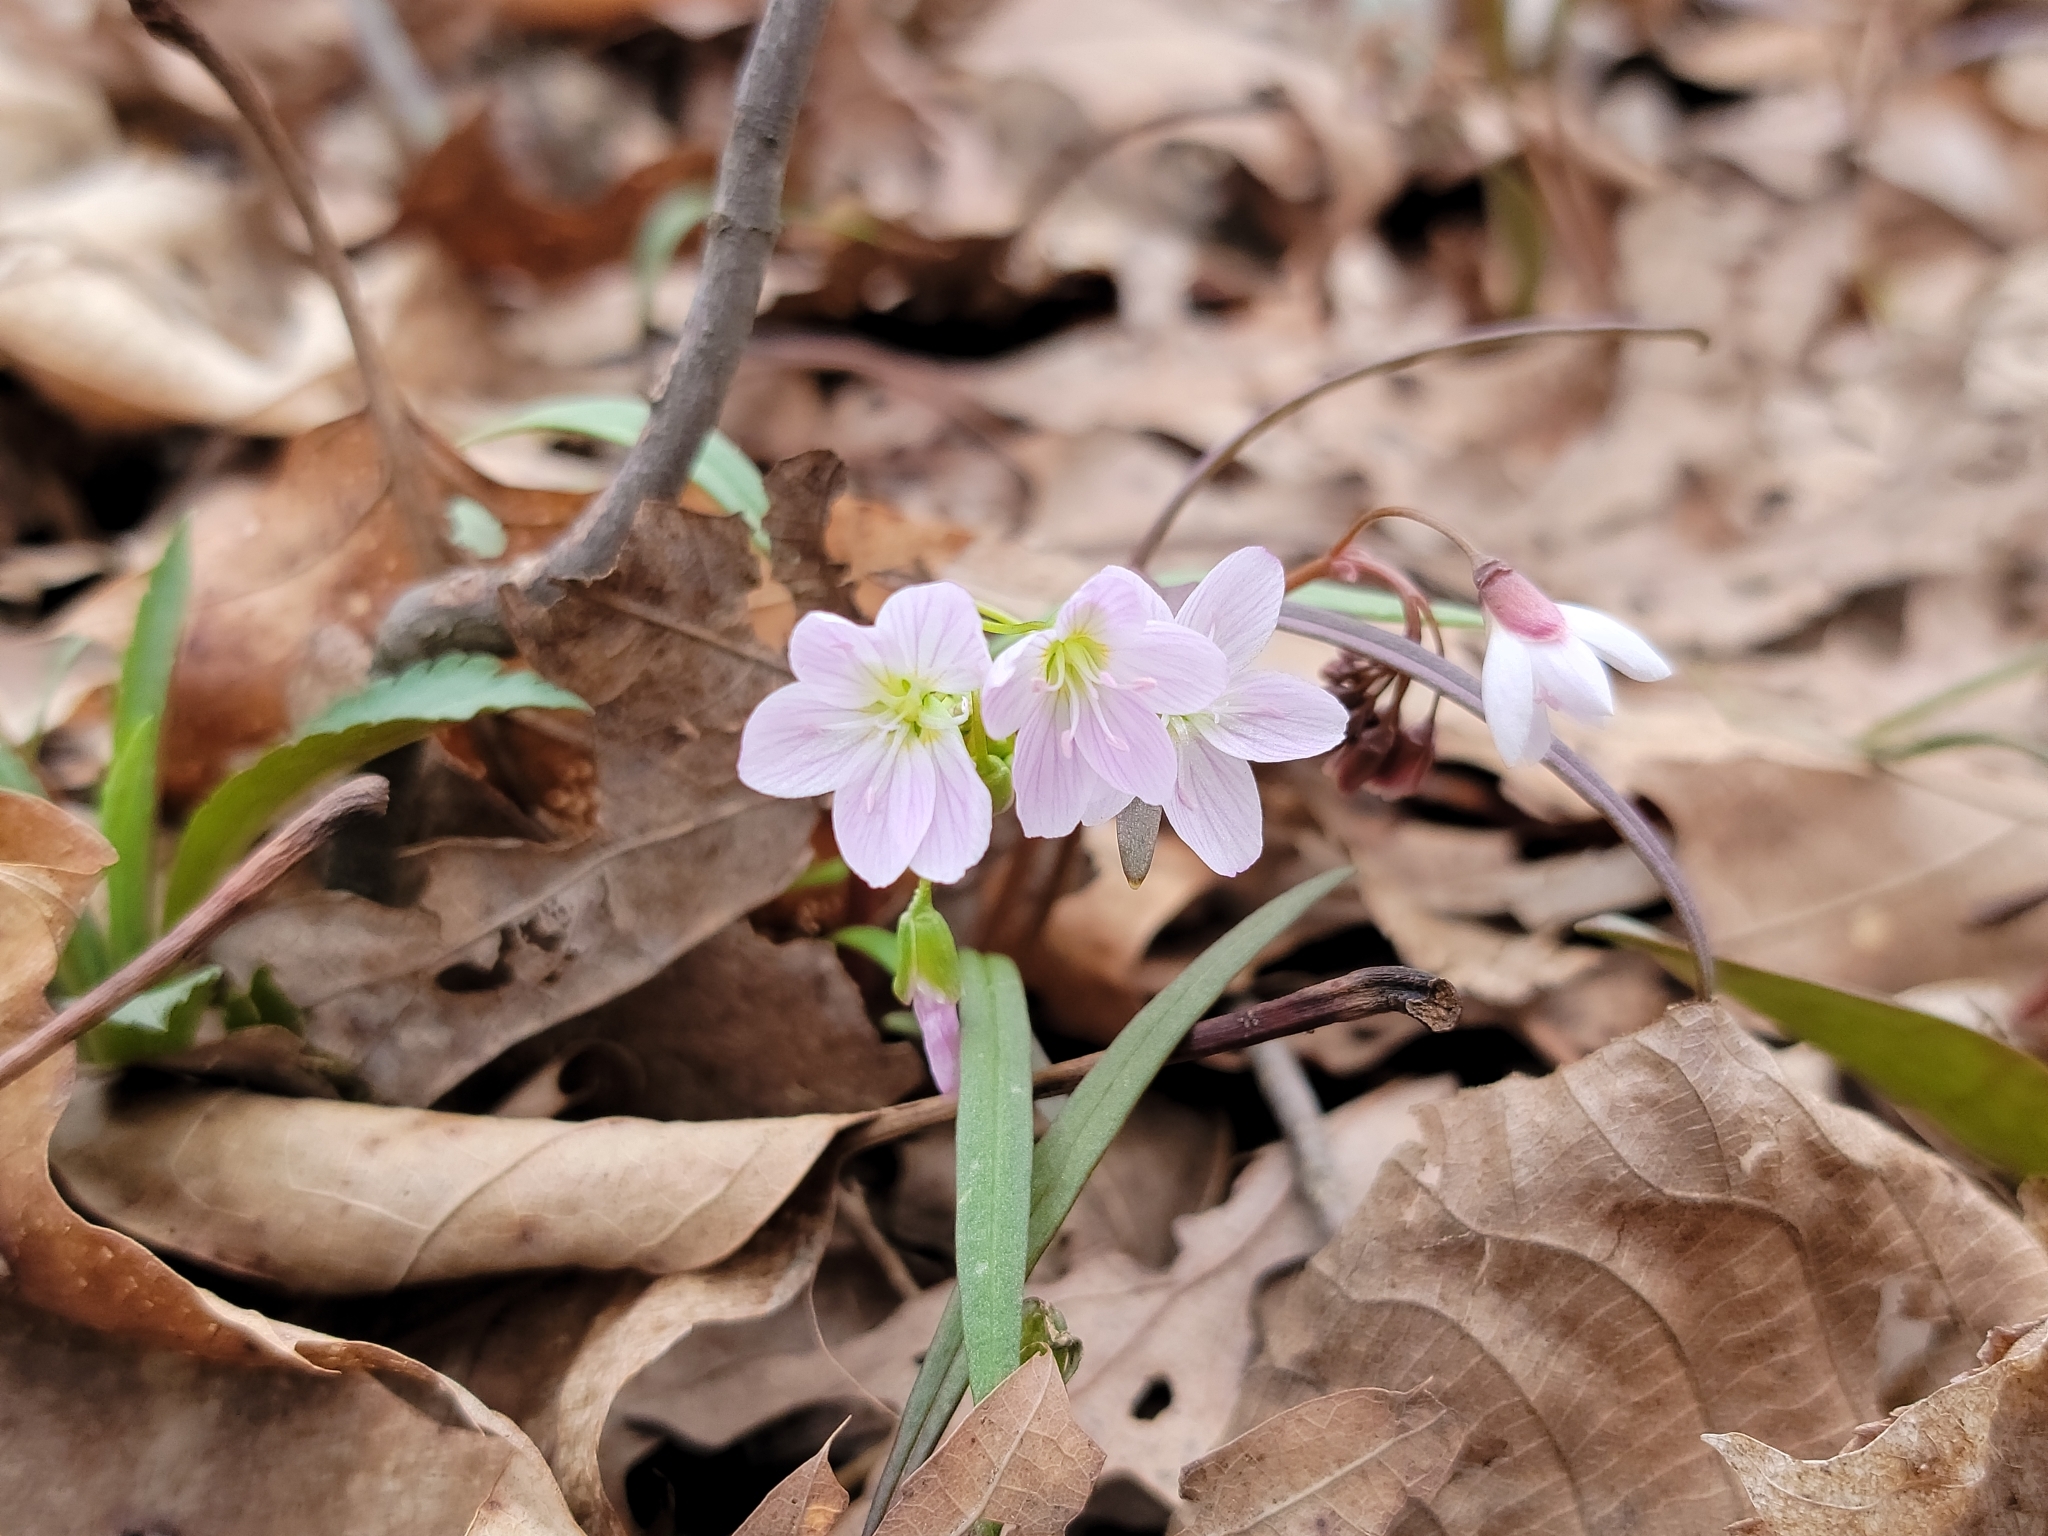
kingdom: Plantae
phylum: Tracheophyta
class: Magnoliopsida
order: Caryophyllales
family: Montiaceae
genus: Claytonia
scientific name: Claytonia virginica
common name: Virginia springbeauty
